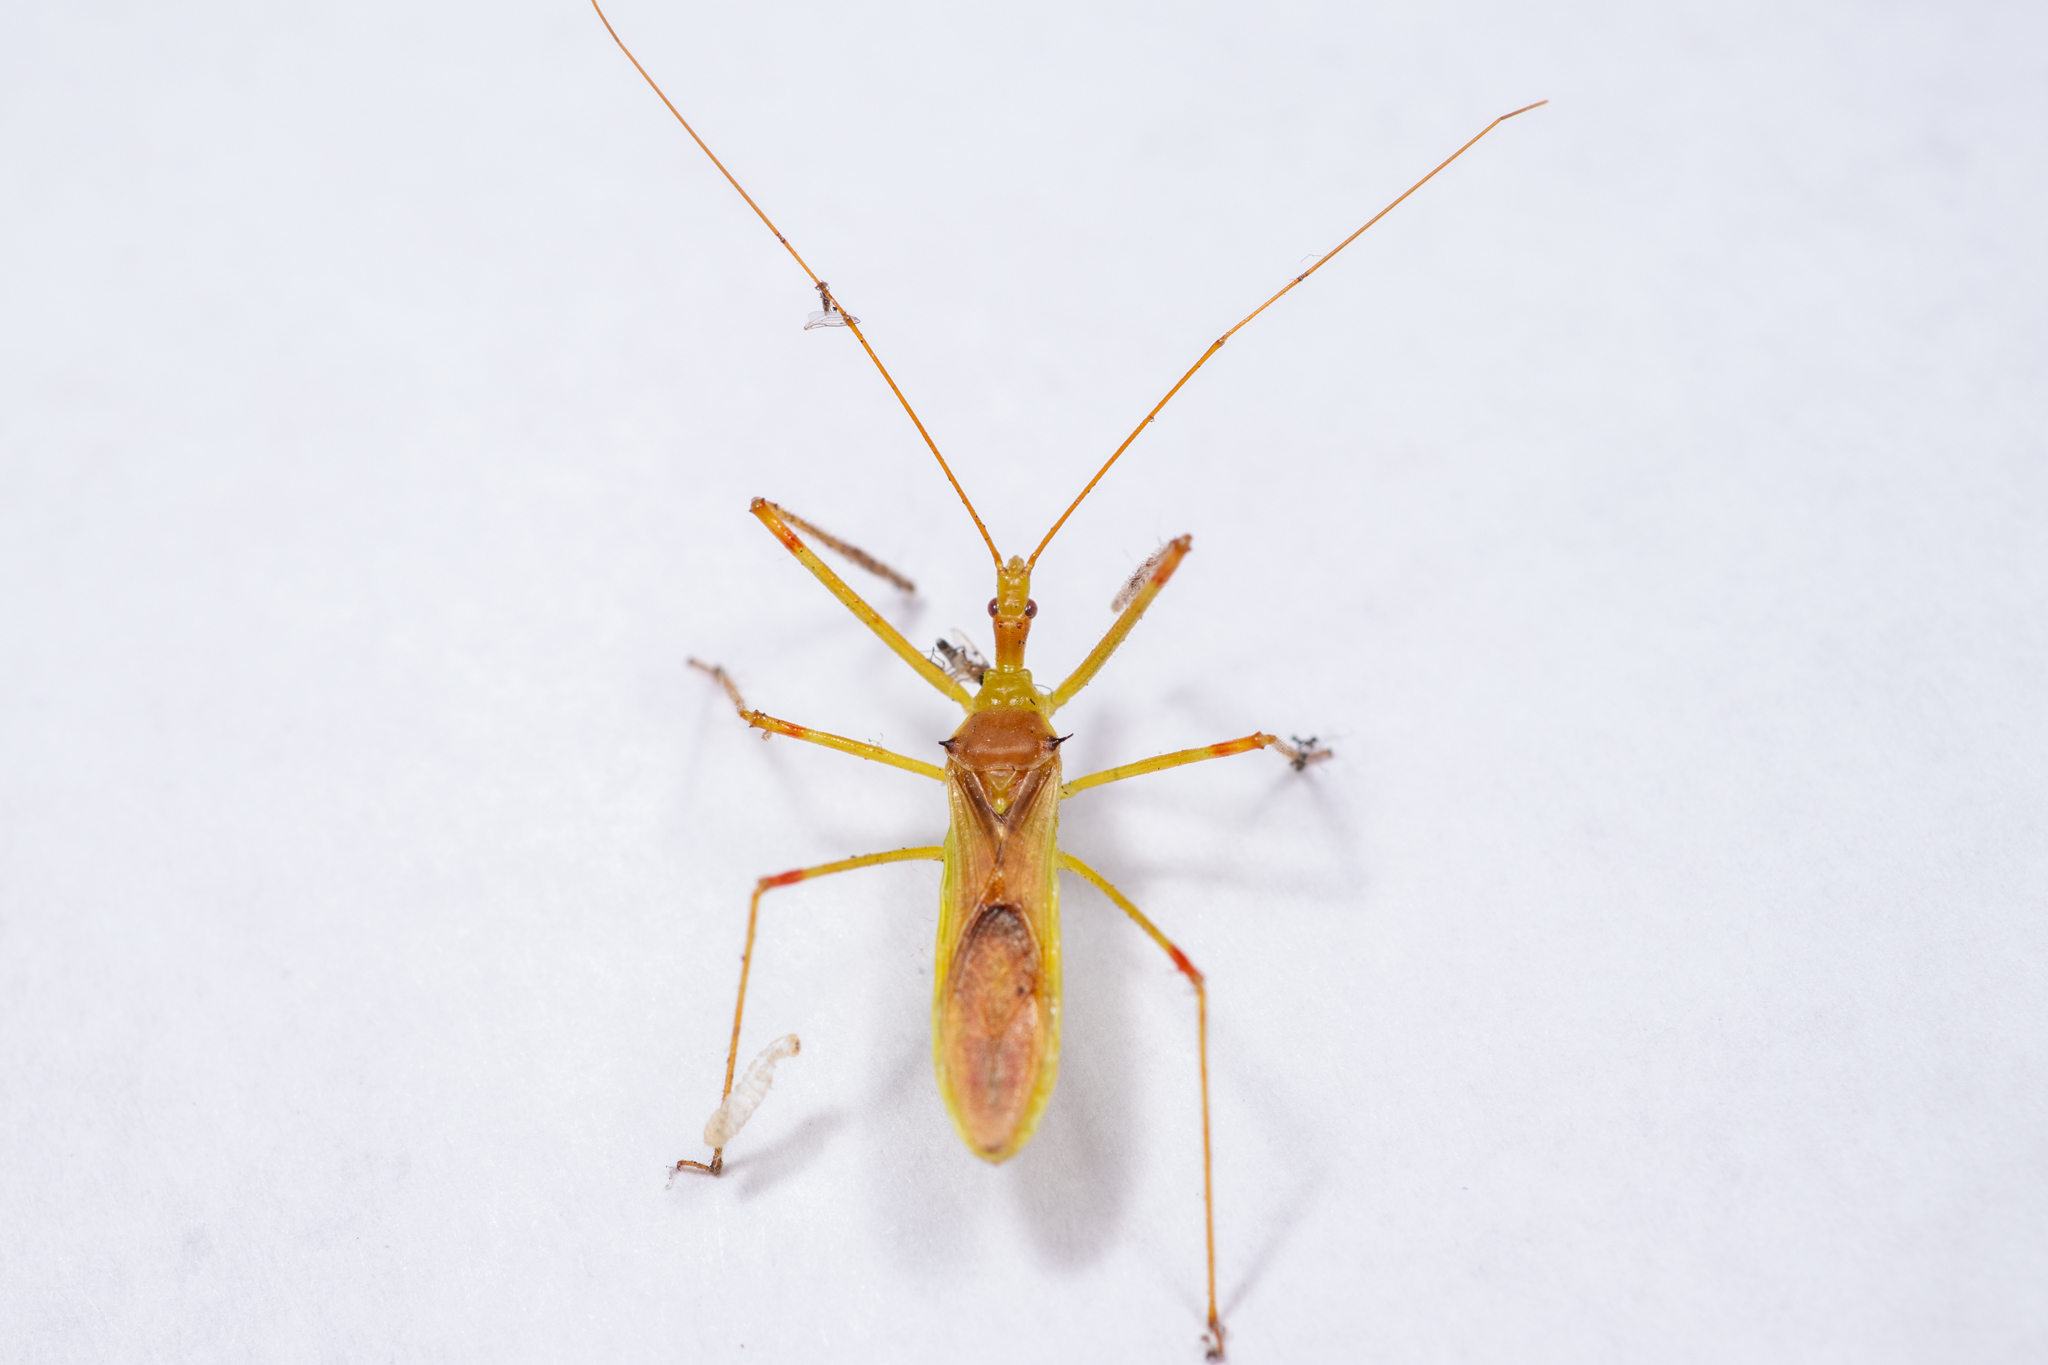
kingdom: Animalia
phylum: Arthropoda
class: Insecta
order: Hemiptera
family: Reduviidae
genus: Zelus
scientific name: Zelus luridus
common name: Pale green assassin bug
